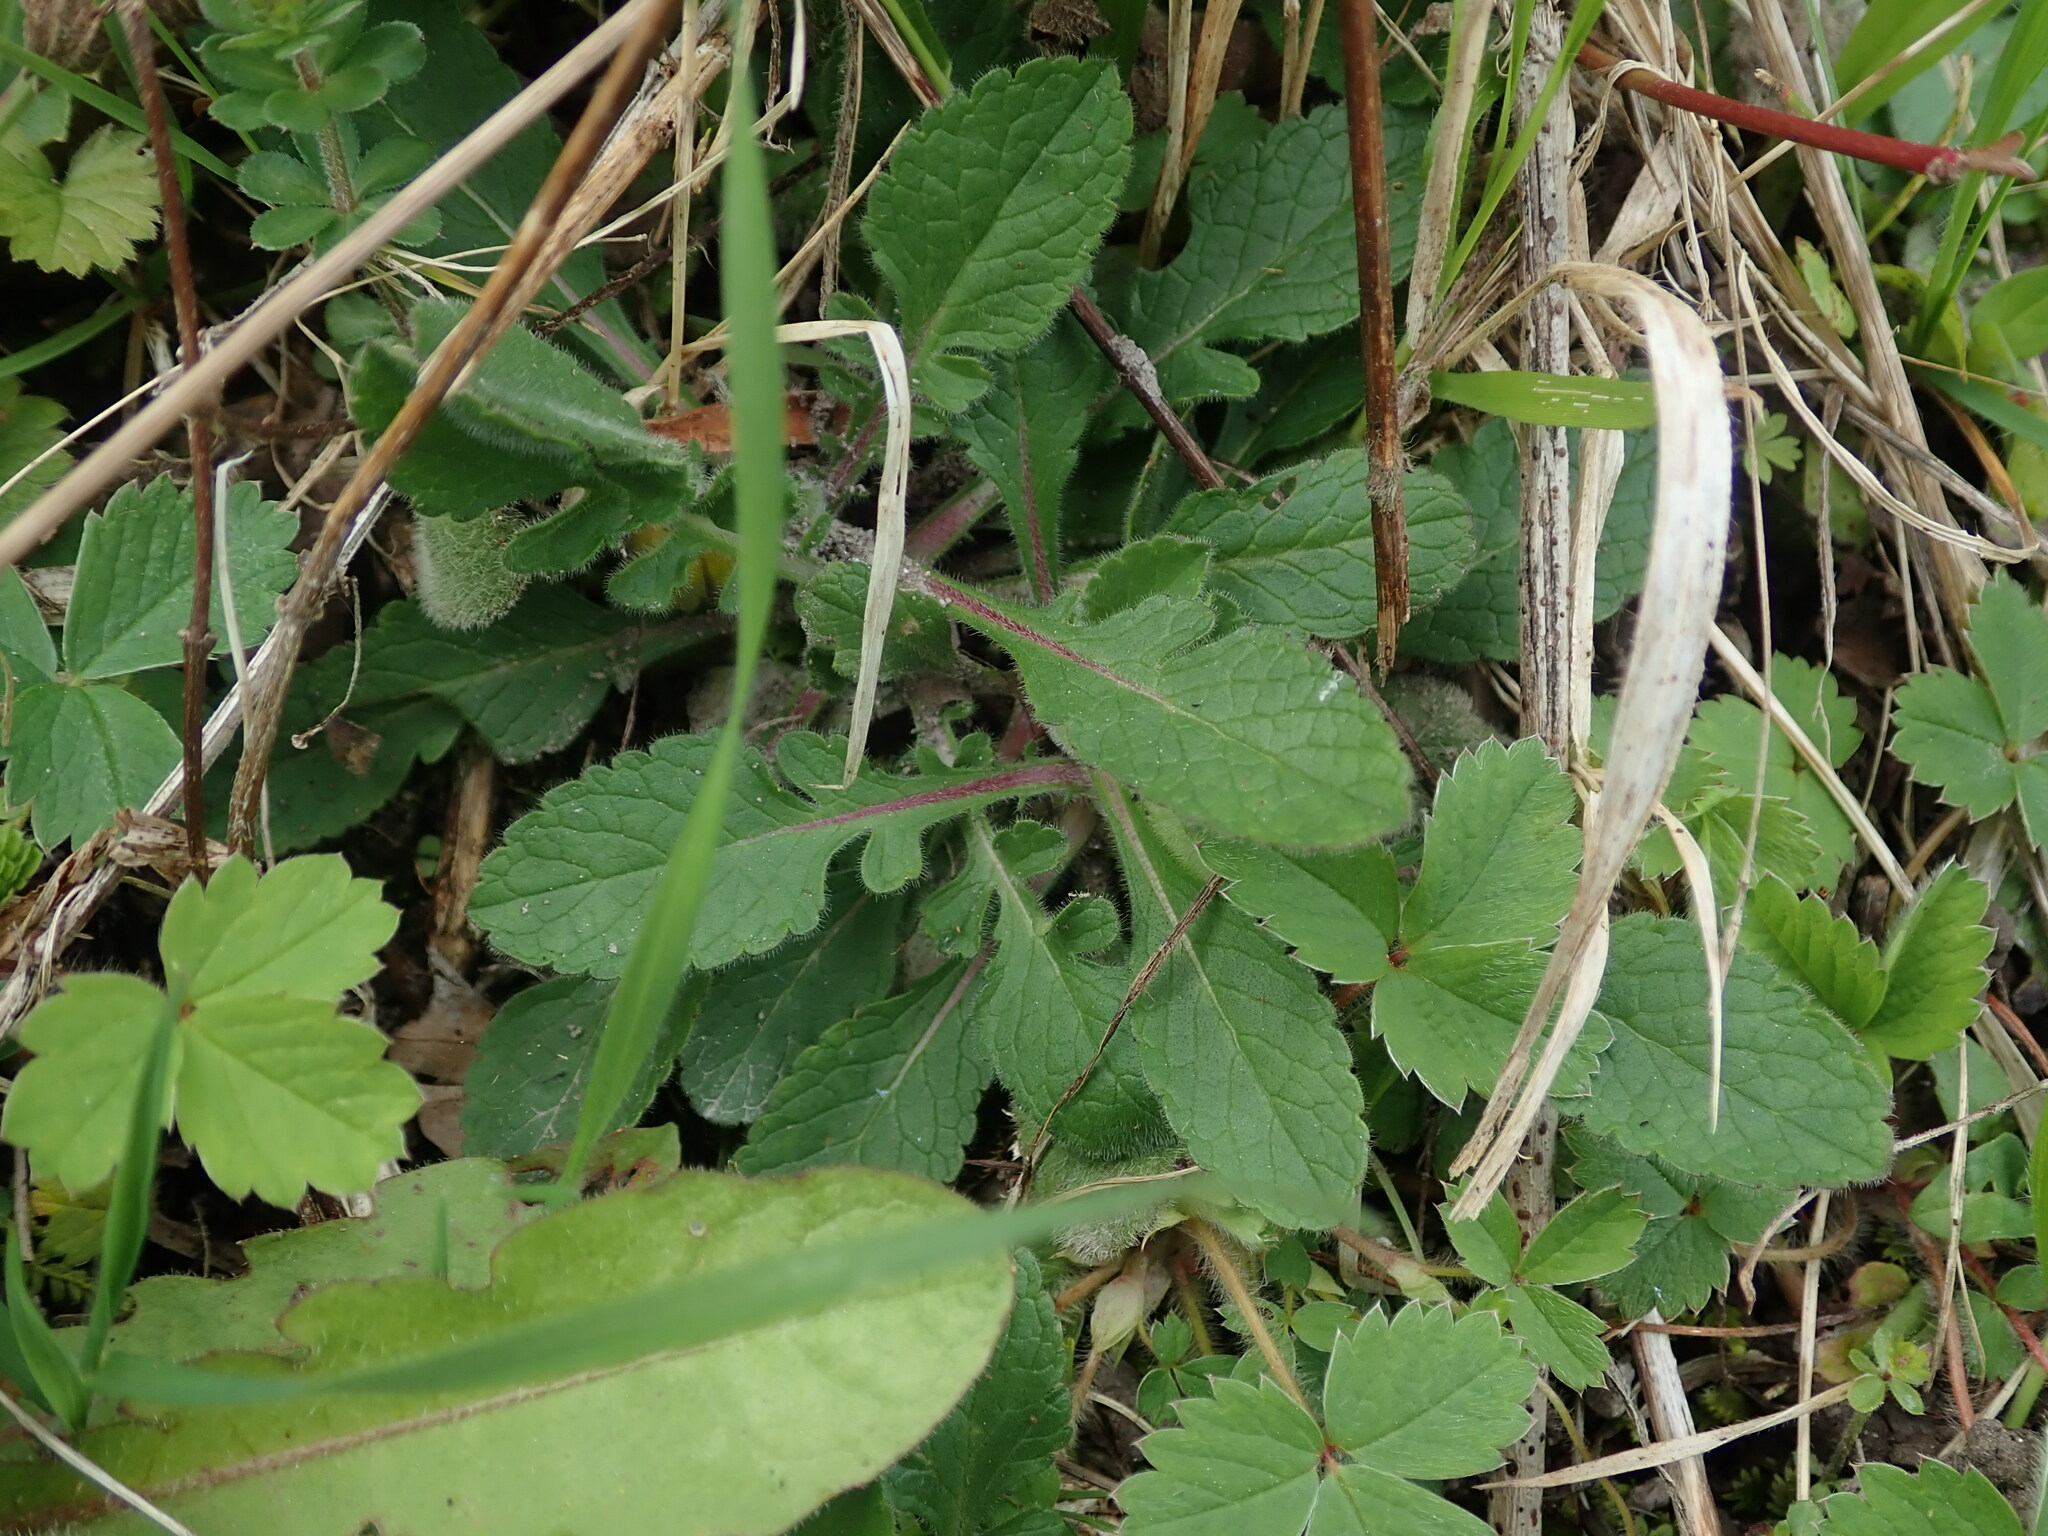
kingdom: Plantae
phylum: Tracheophyta
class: Magnoliopsida
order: Dipsacales
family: Caprifoliaceae
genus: Scabiosa
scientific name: Scabiosa columbaria
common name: Small scabious
